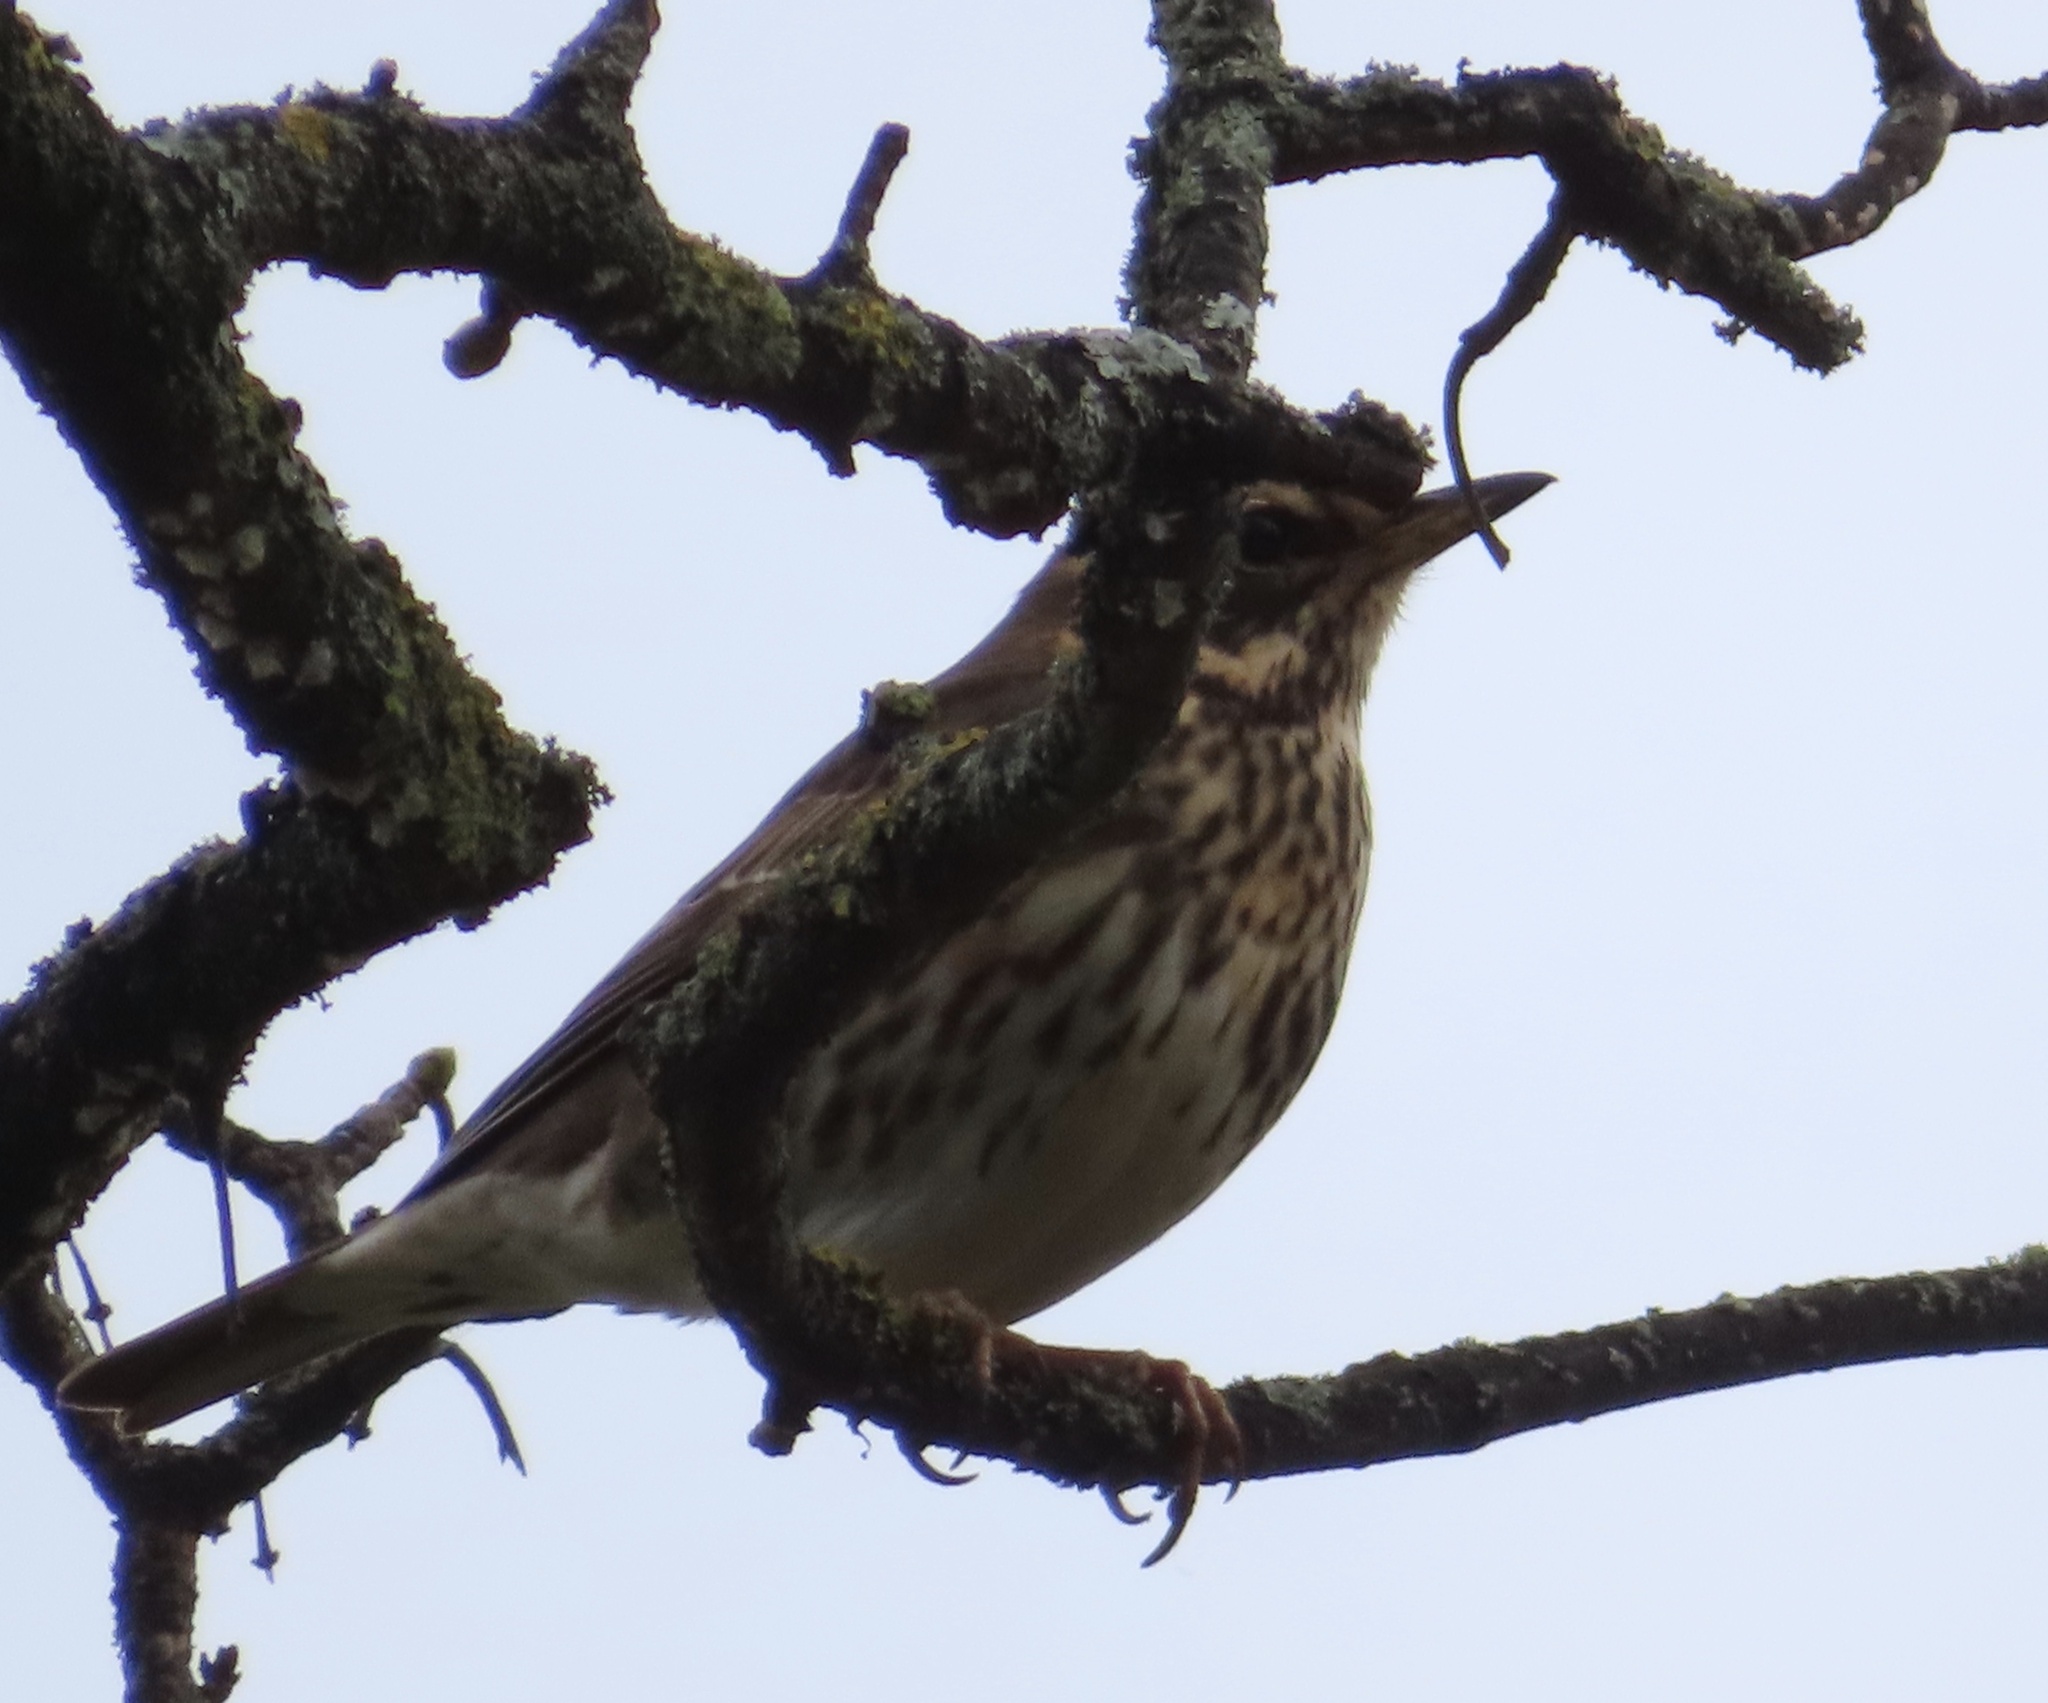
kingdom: Animalia
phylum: Chordata
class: Aves
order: Passeriformes
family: Turdidae
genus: Turdus
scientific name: Turdus iliacus
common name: Redwing
